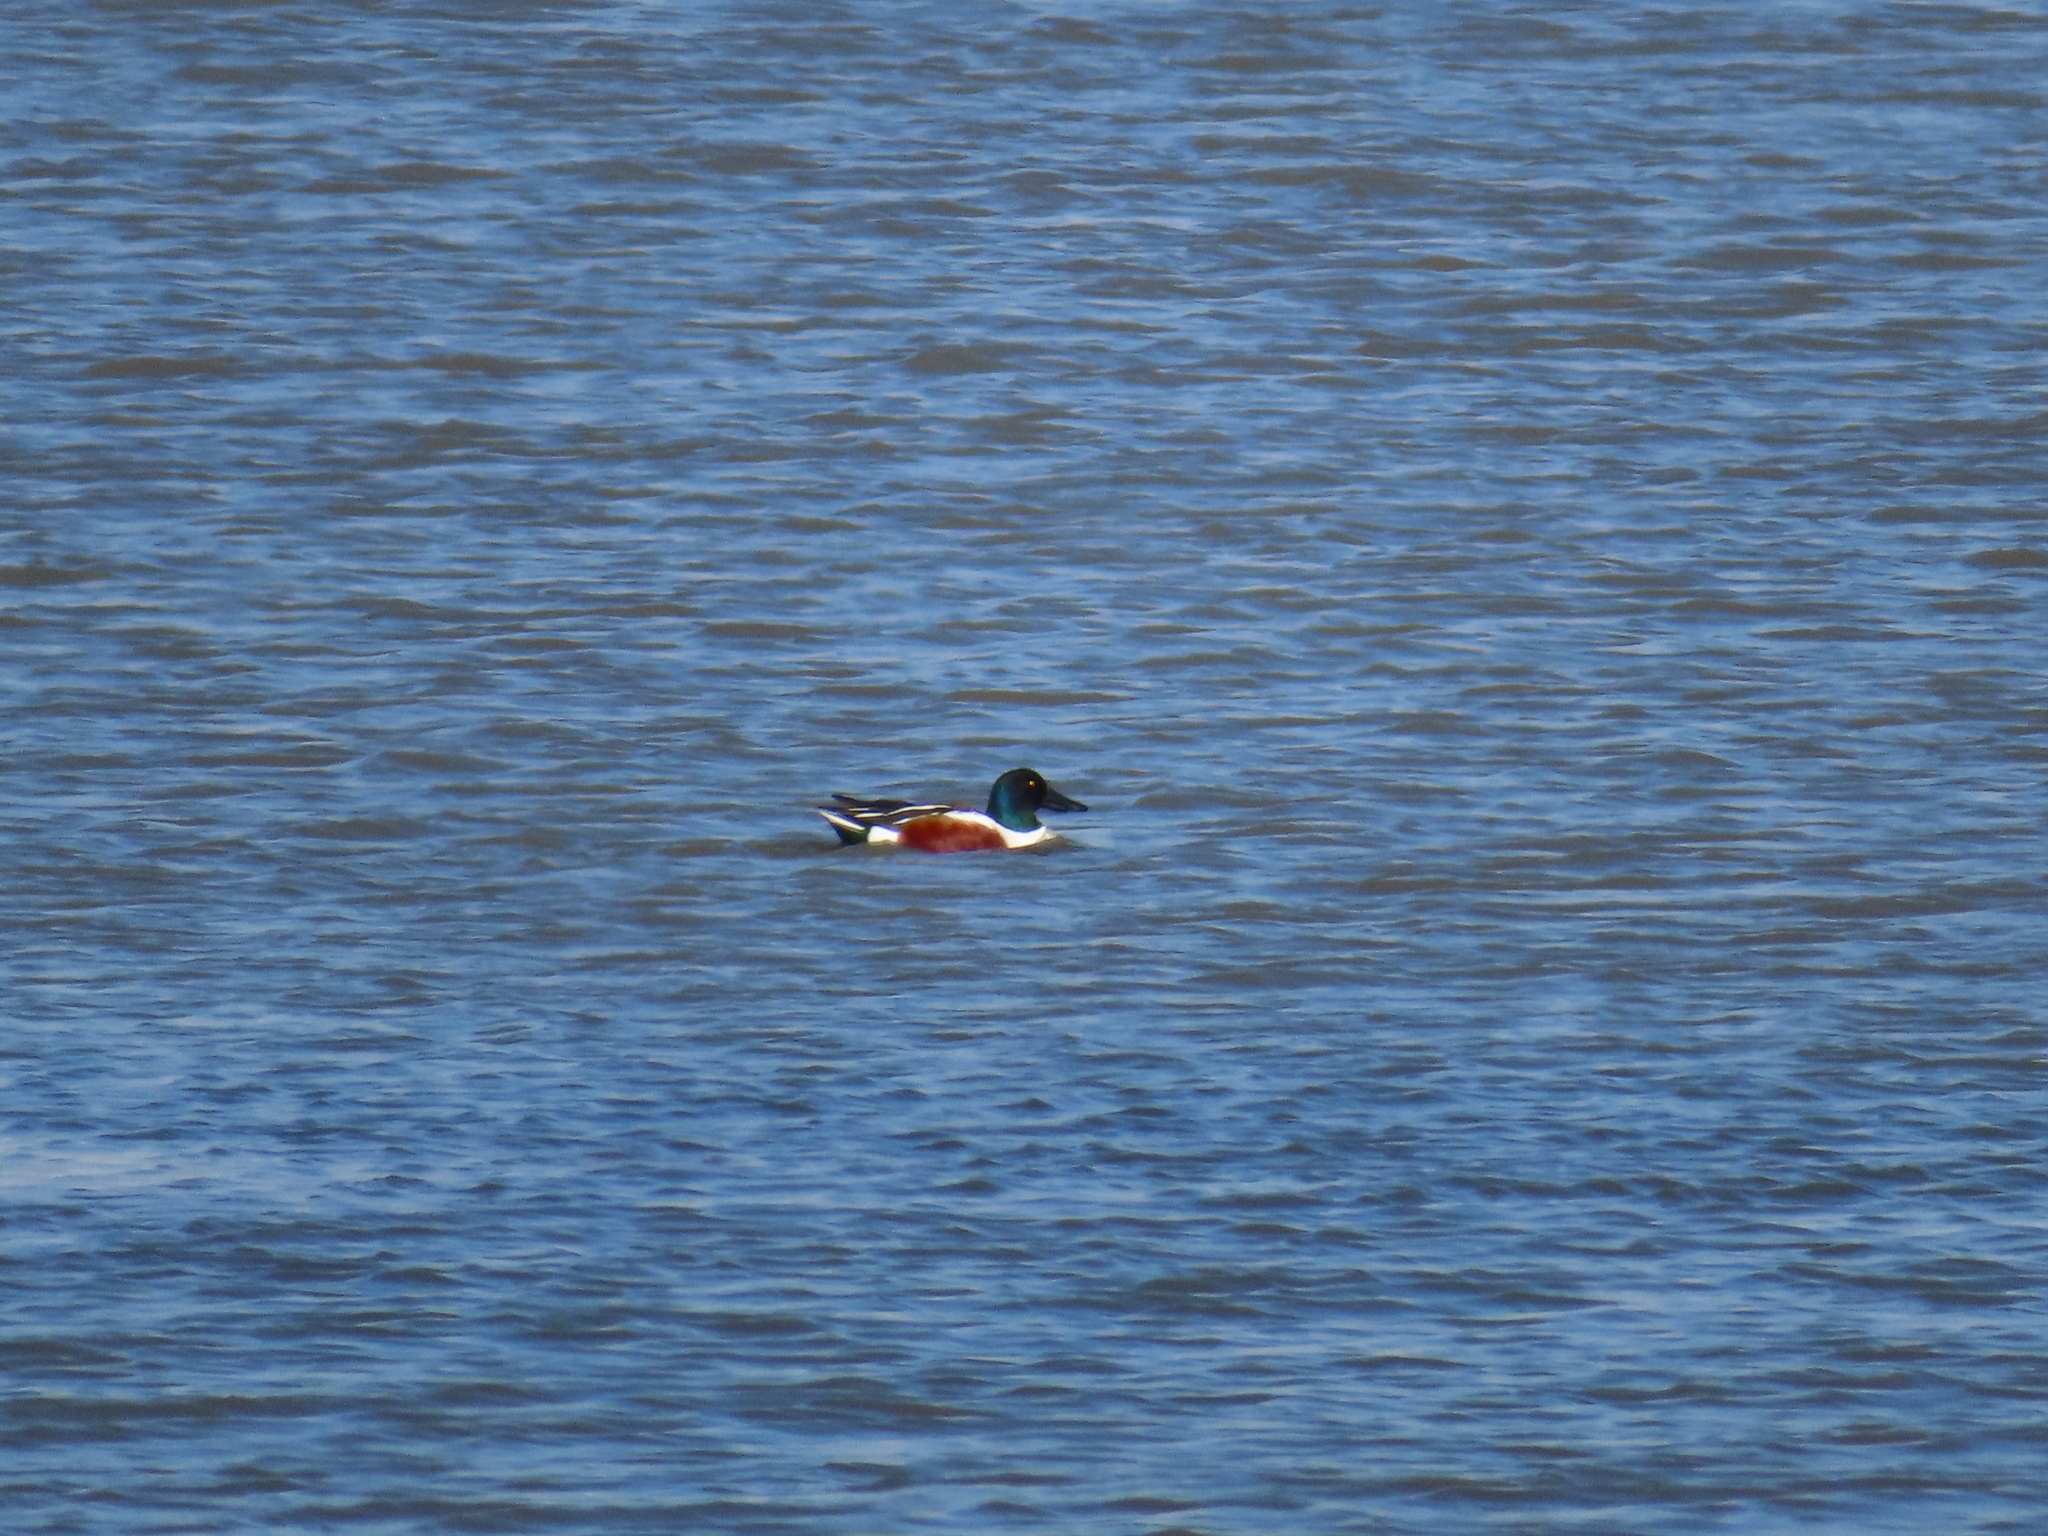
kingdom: Animalia
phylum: Chordata
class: Aves
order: Anseriformes
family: Anatidae
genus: Spatula
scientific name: Spatula clypeata
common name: Northern shoveler
